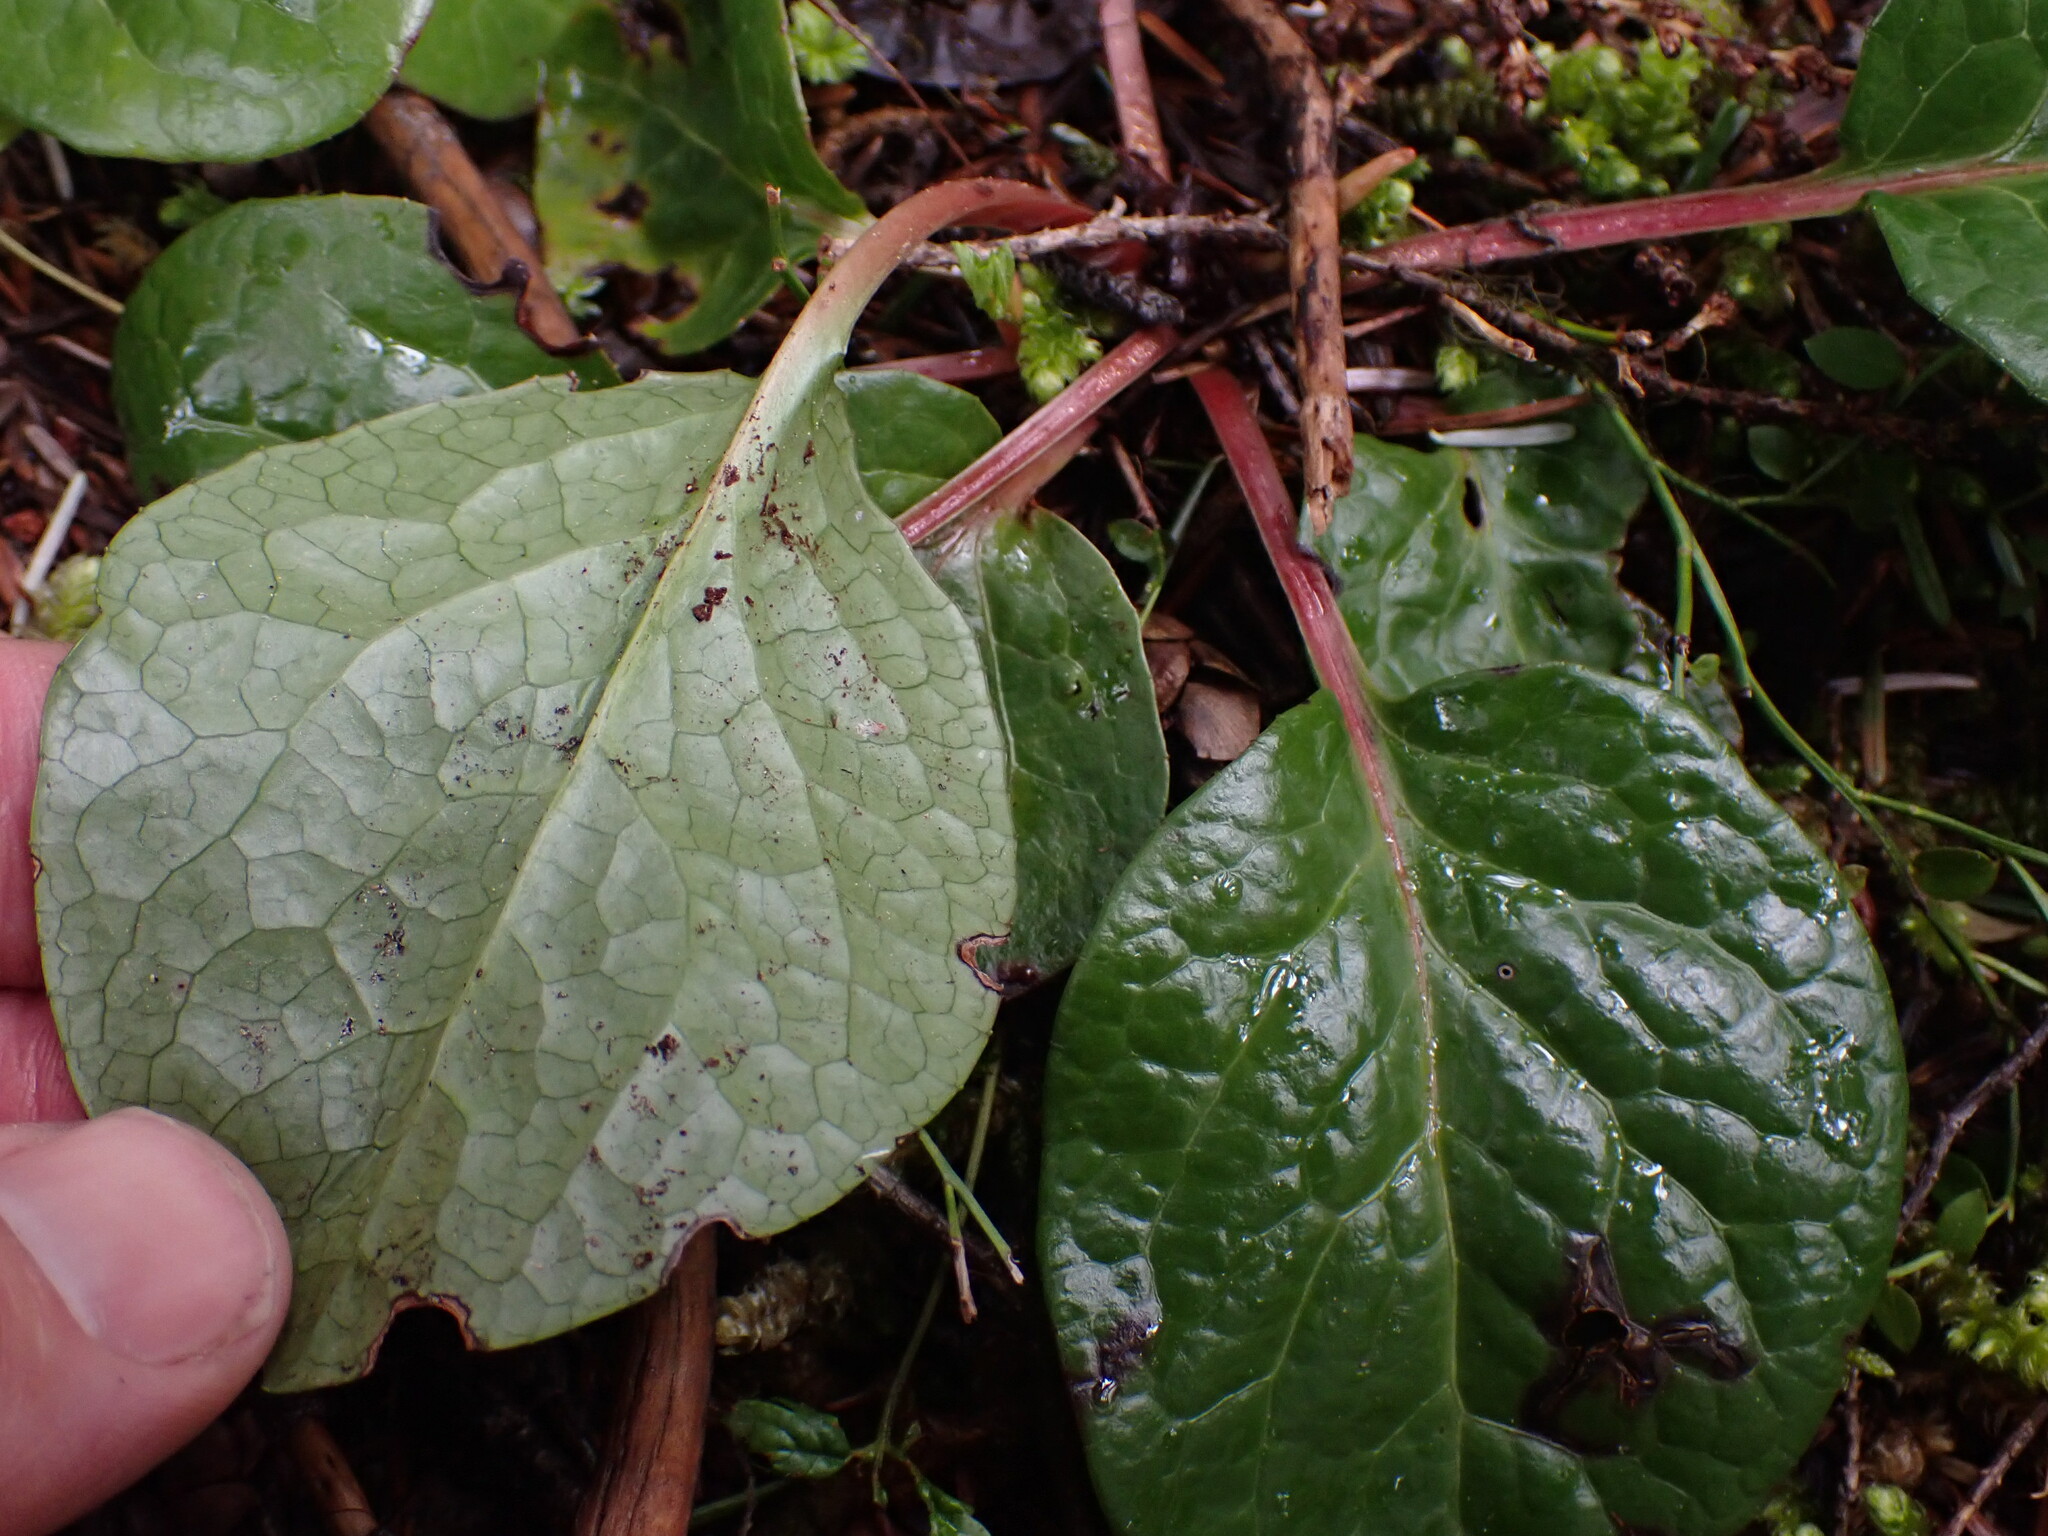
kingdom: Plantae
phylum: Tracheophyta
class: Magnoliopsida
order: Ericales
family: Ericaceae
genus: Pyrola
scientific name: Pyrola asarifolia
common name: Bog wintergreen
